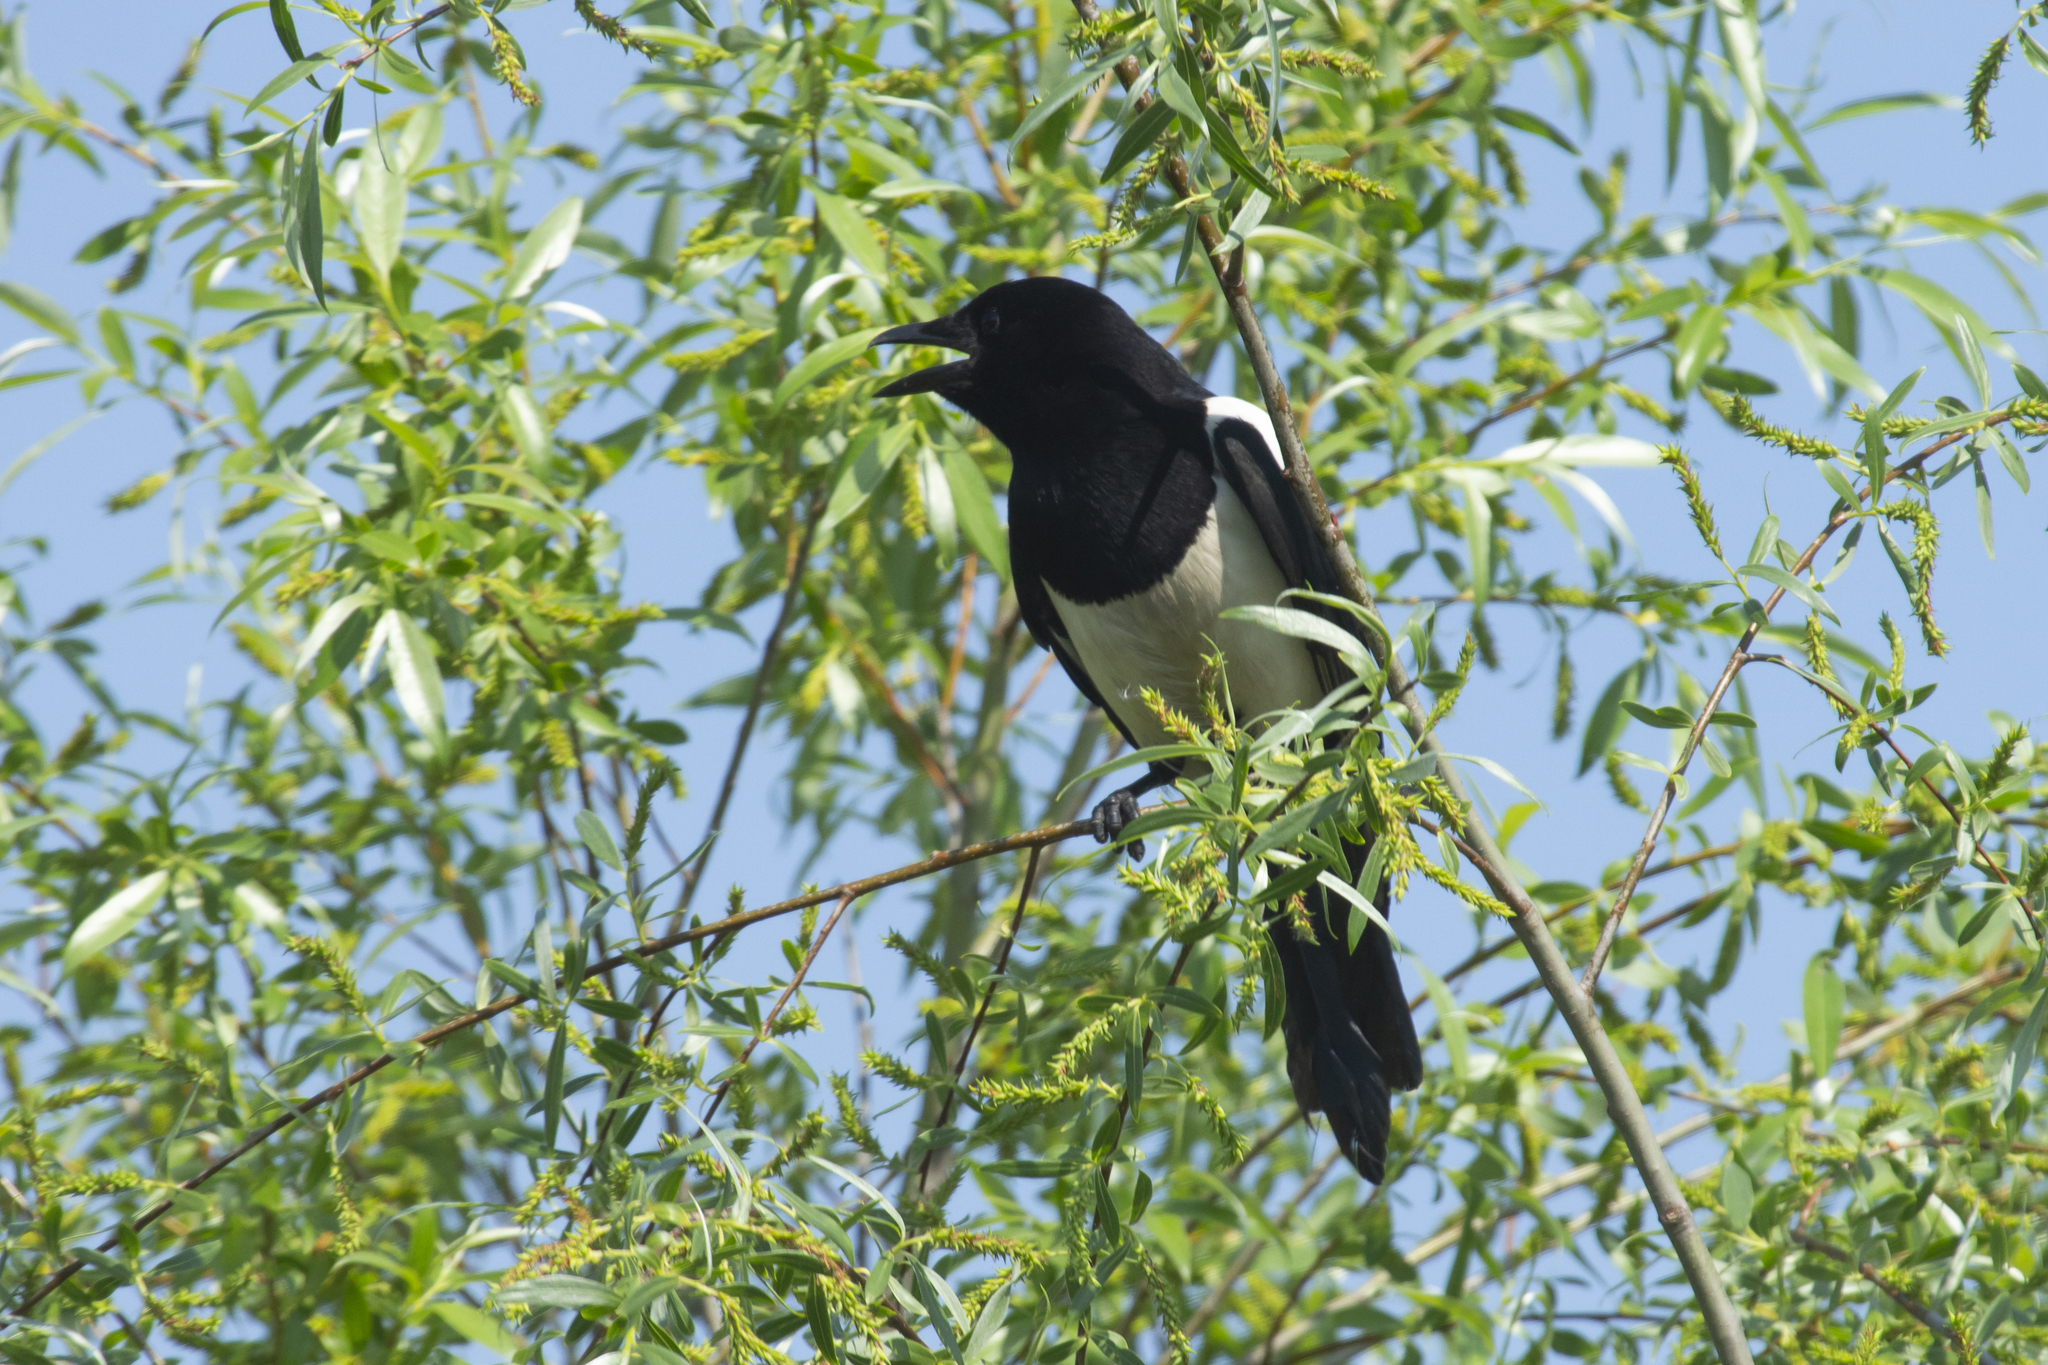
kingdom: Animalia
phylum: Chordata
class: Aves
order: Passeriformes
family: Corvidae
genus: Pica
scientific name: Pica pica
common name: Eurasian magpie
